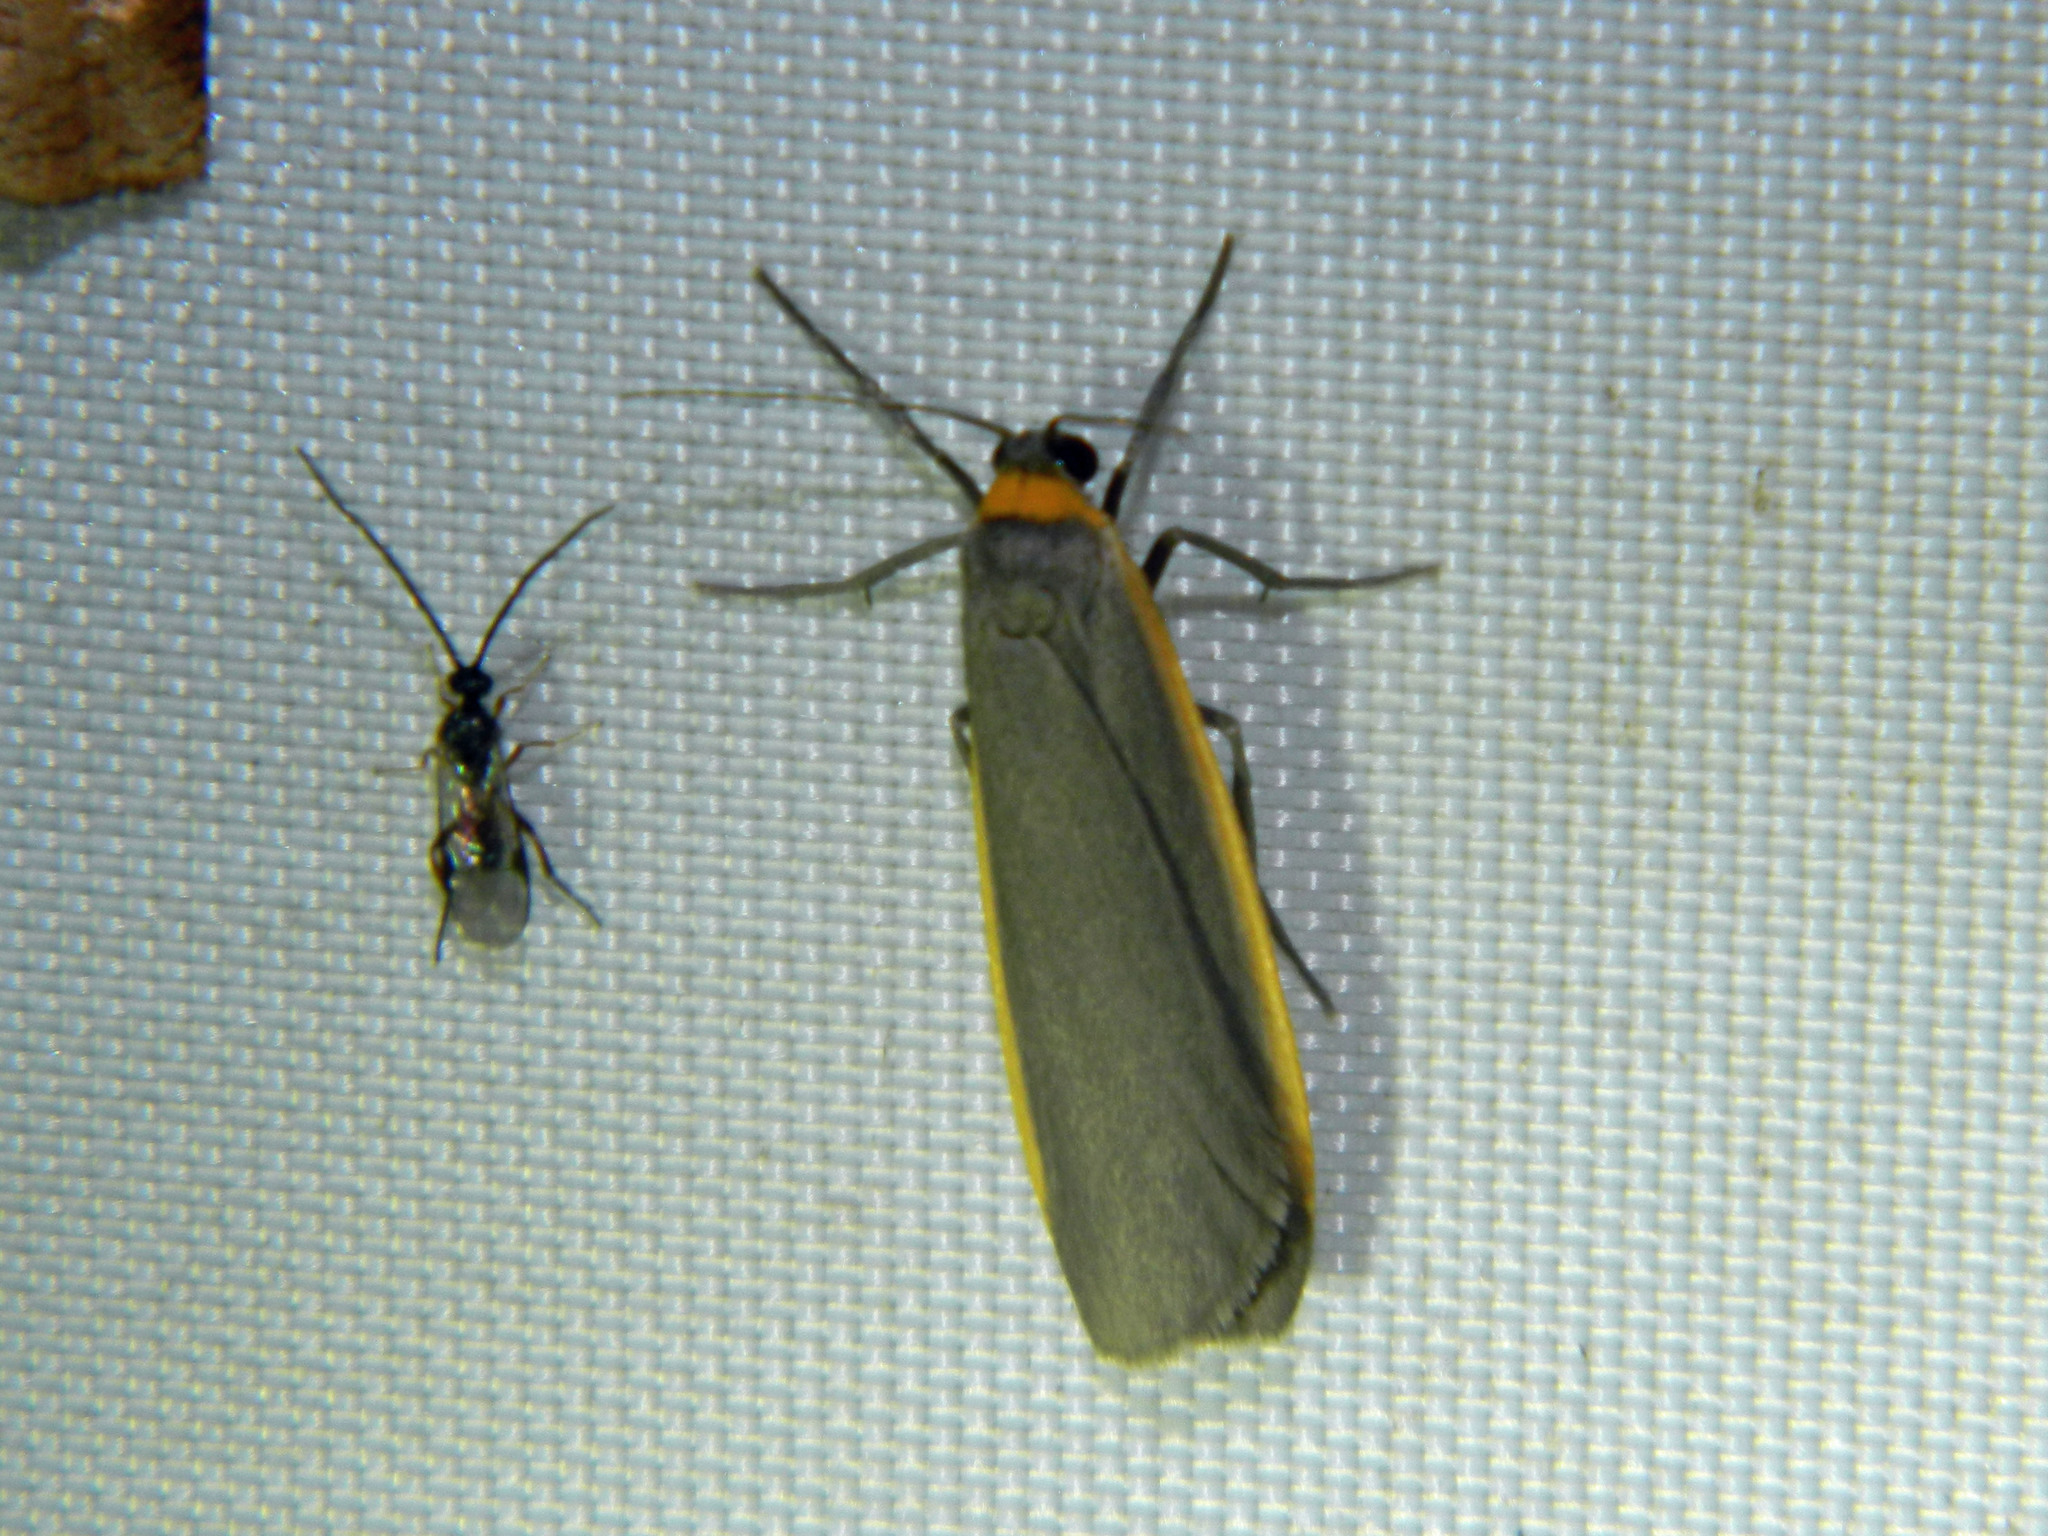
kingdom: Animalia
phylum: Arthropoda
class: Insecta
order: Lepidoptera
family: Erebidae
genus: Manulea
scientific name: Manulea bicolor
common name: Bicolored moth
